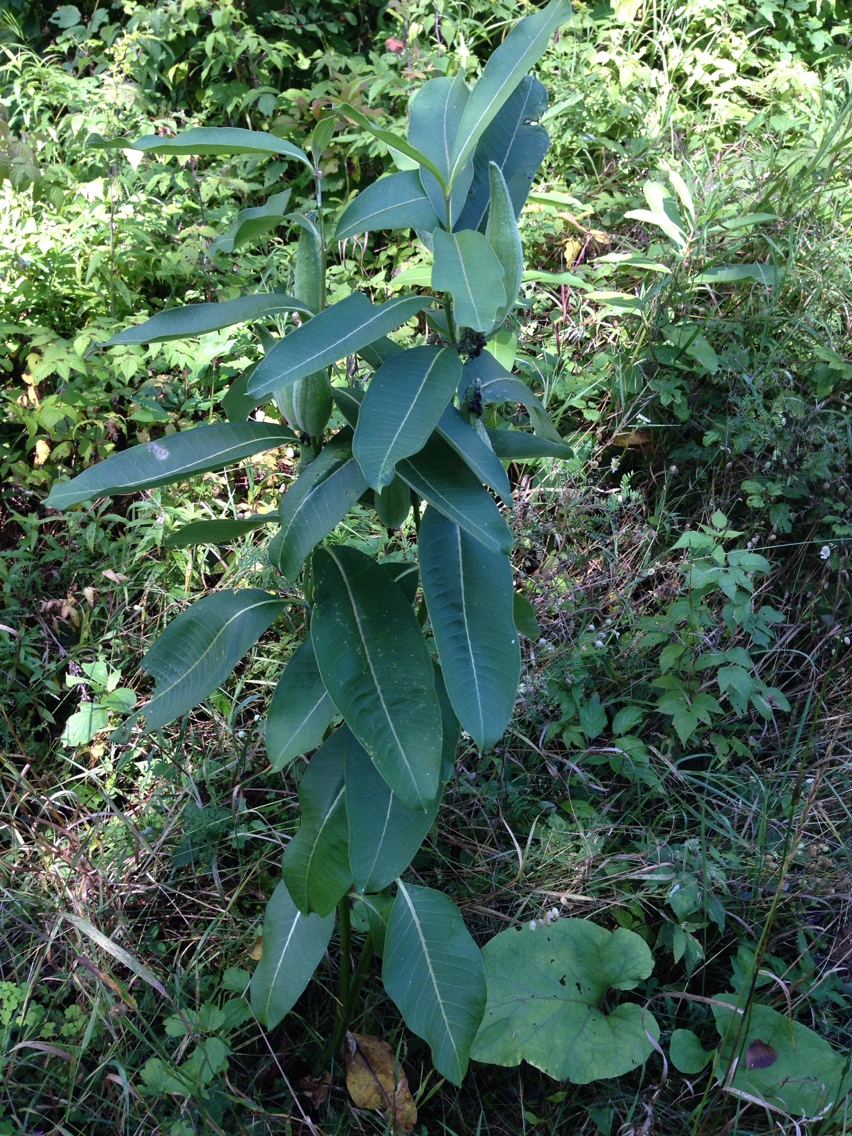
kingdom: Plantae
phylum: Tracheophyta
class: Magnoliopsida
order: Gentianales
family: Apocynaceae
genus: Asclepias
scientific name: Asclepias syriaca
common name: Common milkweed
